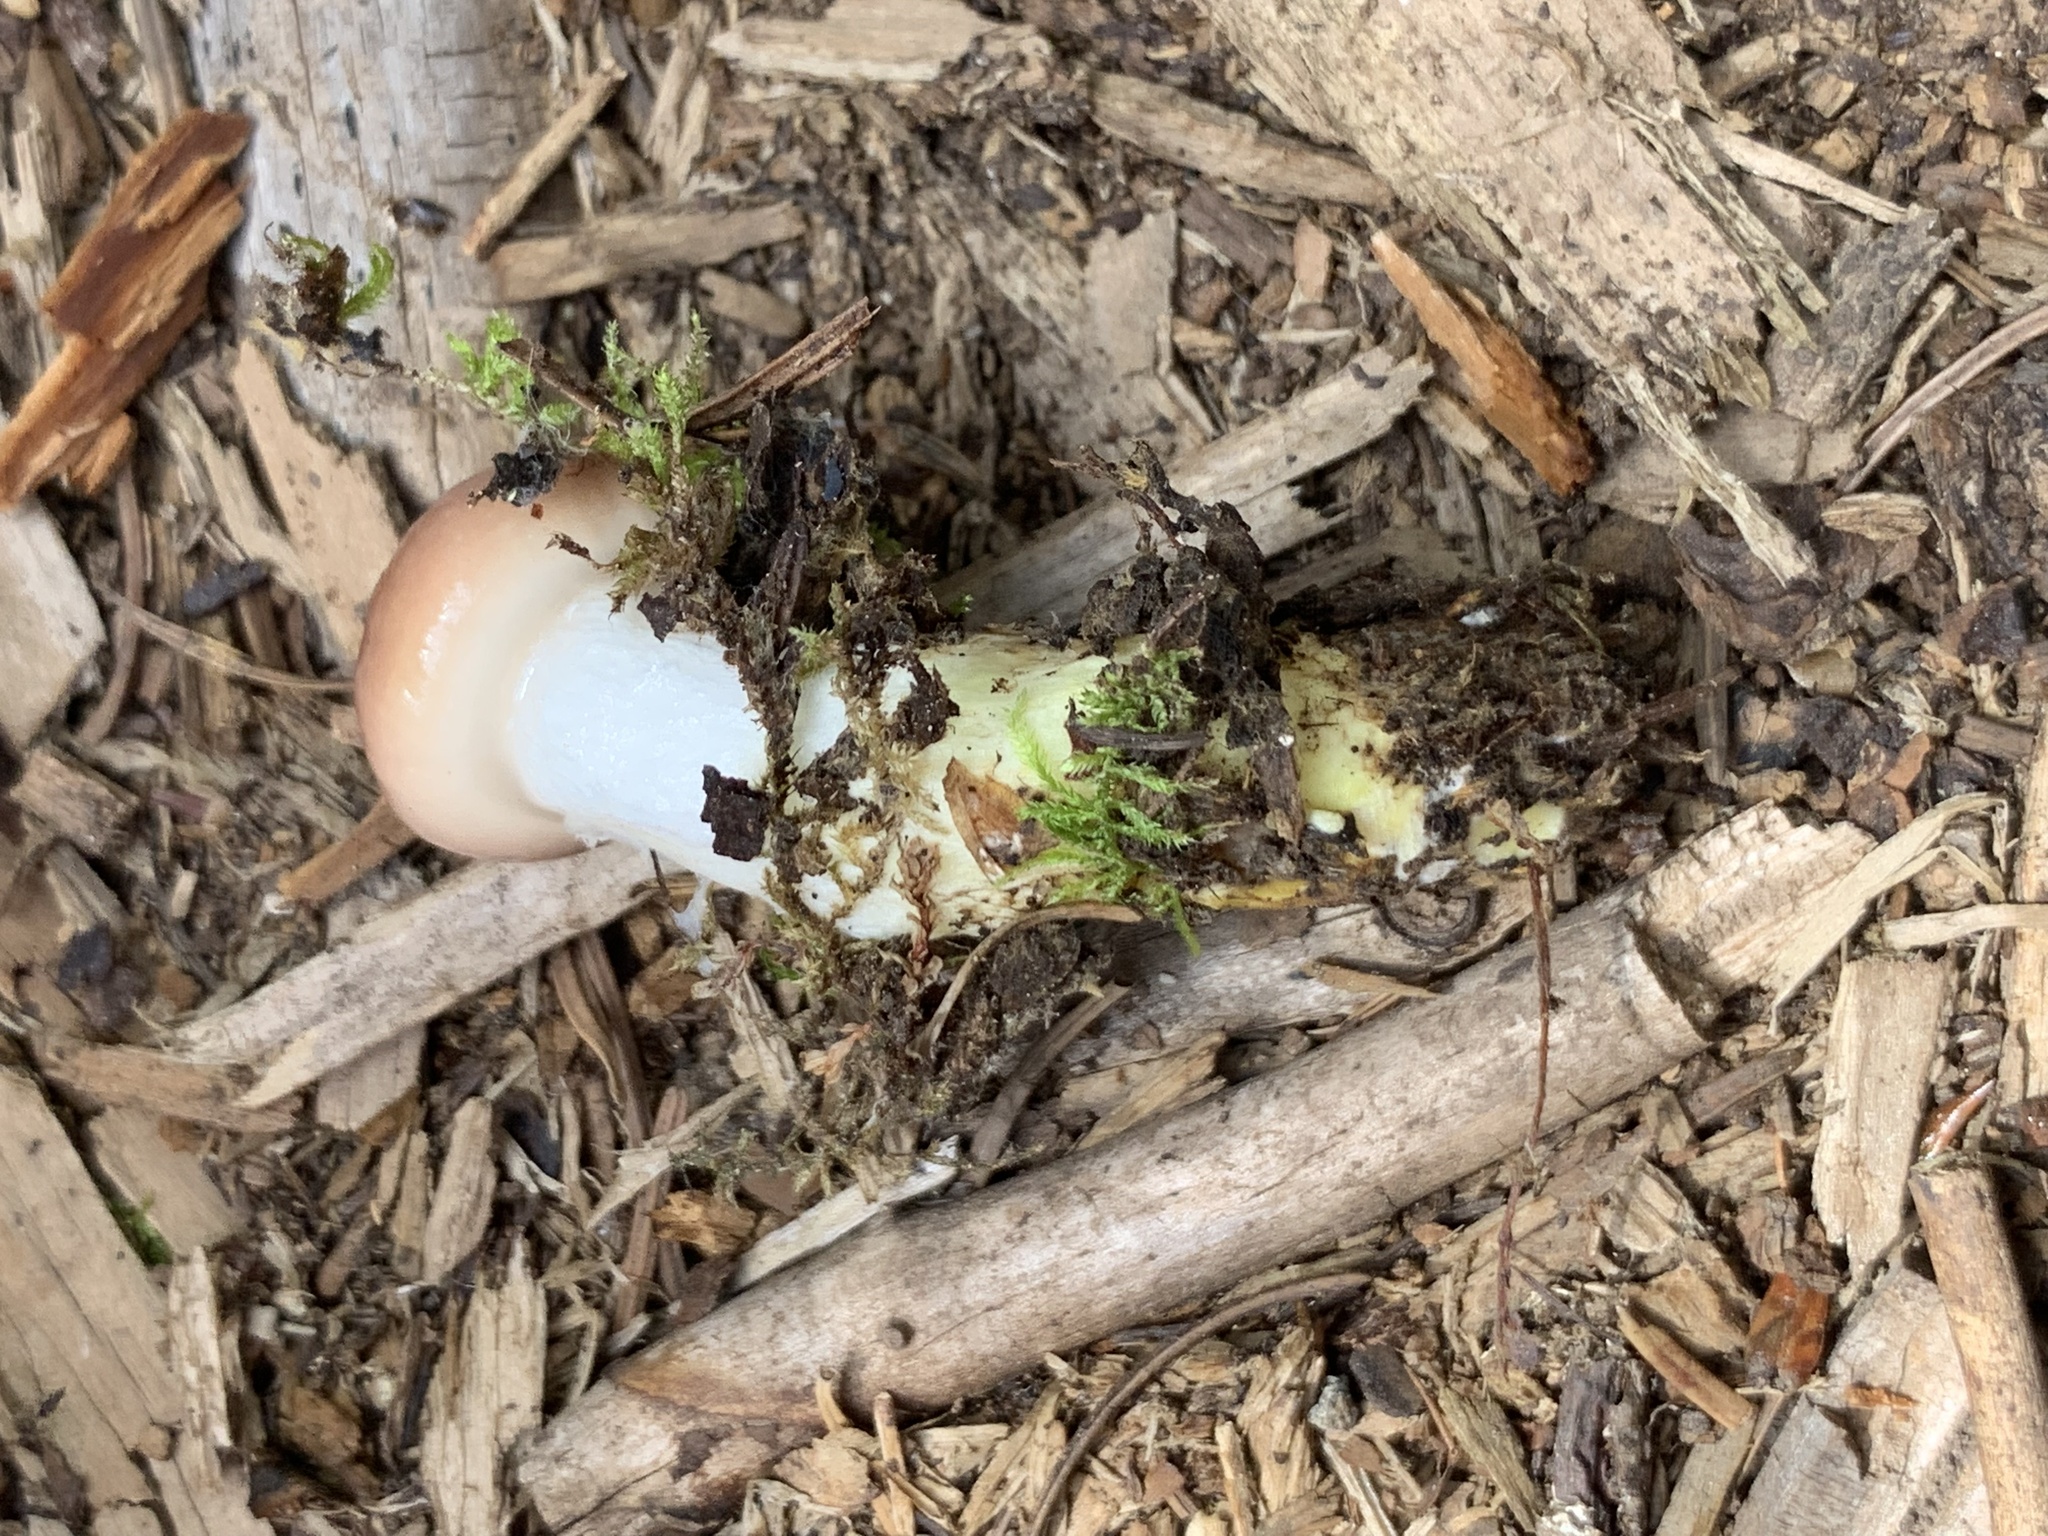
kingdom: Fungi
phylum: Basidiomycota
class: Agaricomycetes
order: Boletales
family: Gomphidiaceae
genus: Gomphidius
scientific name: Gomphidius subroseus
